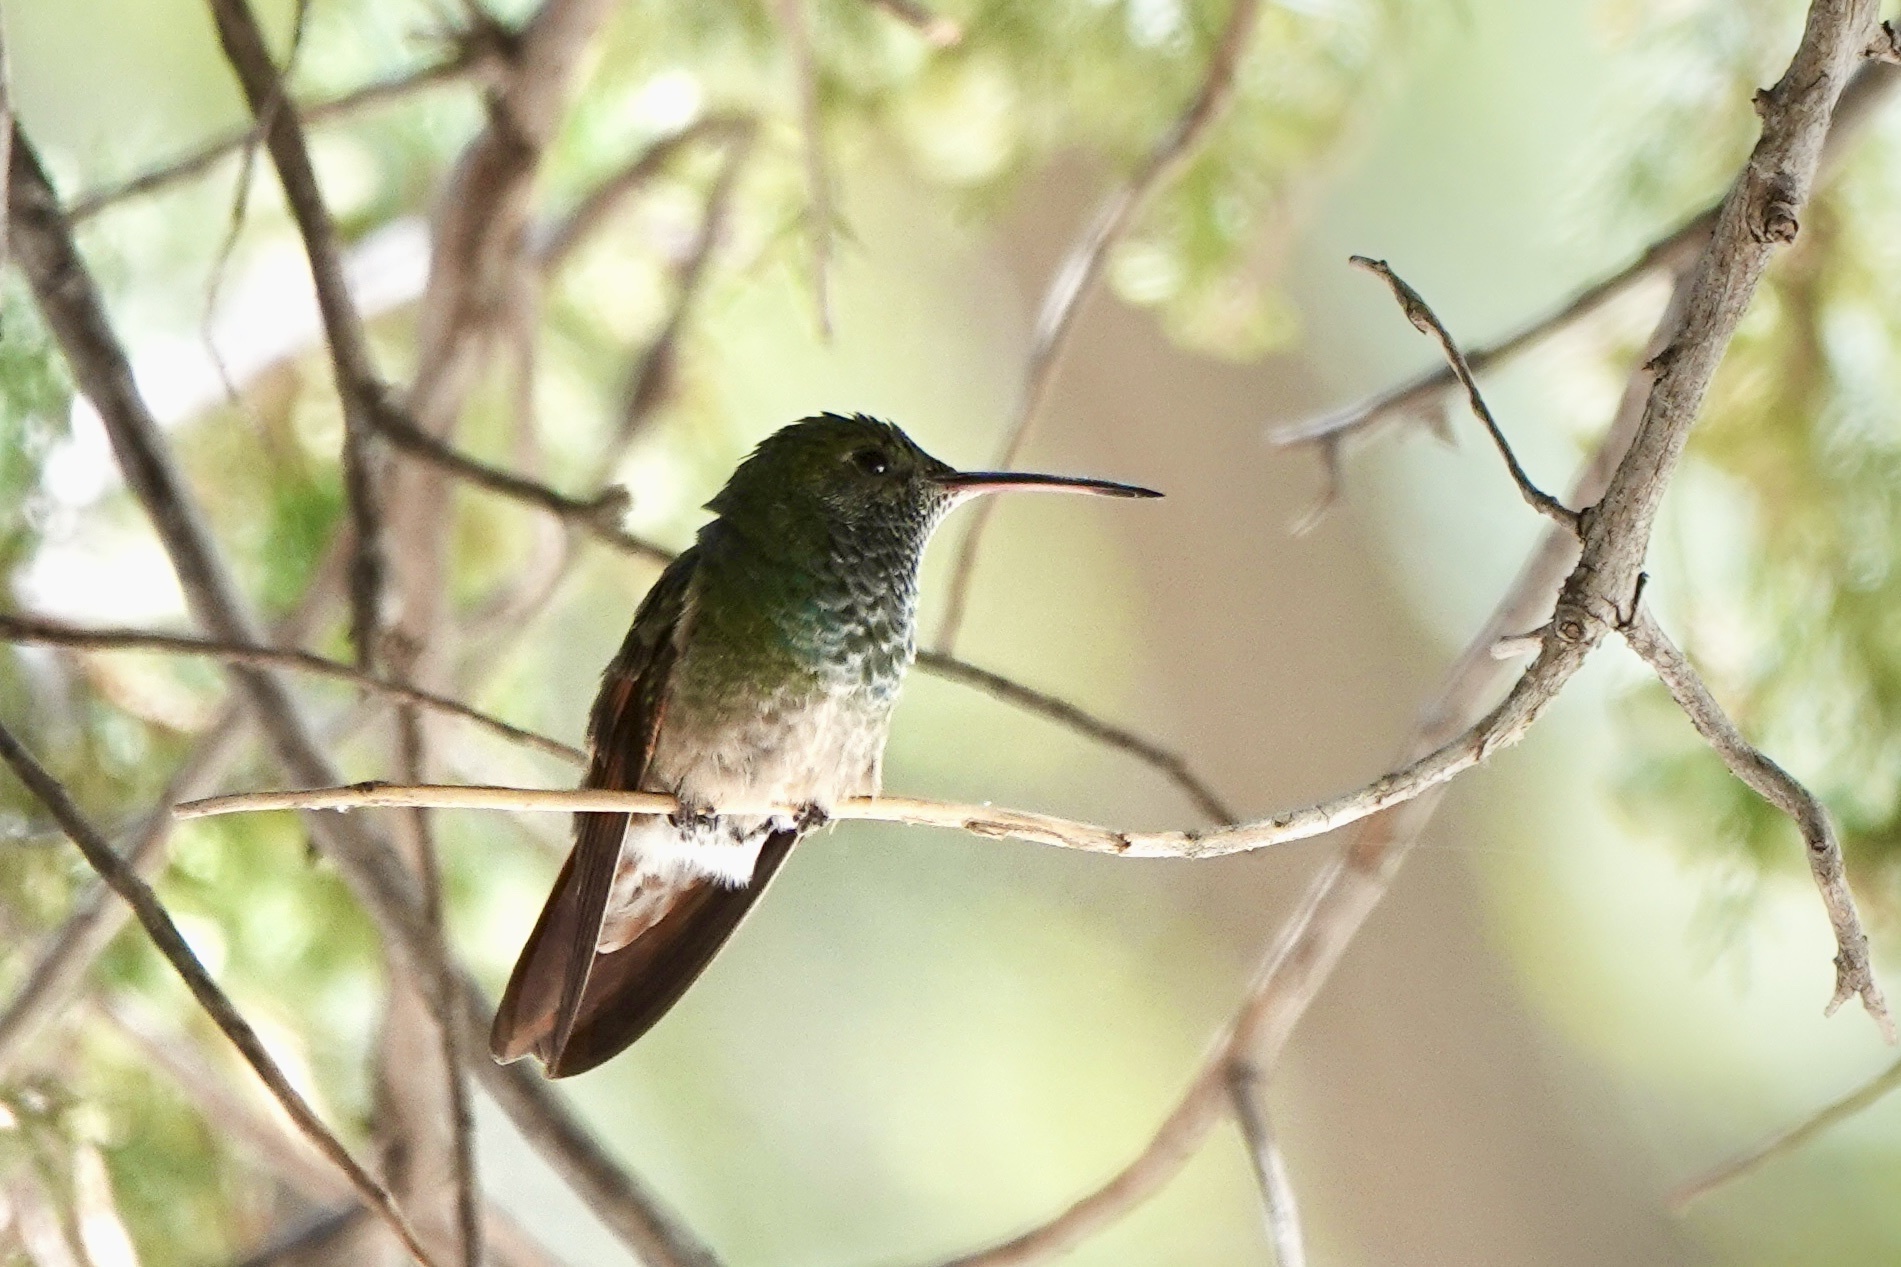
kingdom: Animalia
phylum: Chordata
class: Aves
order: Apodiformes
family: Trochilidae
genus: Saucerottia
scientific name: Saucerottia beryllina
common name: Berylline hummingbird
